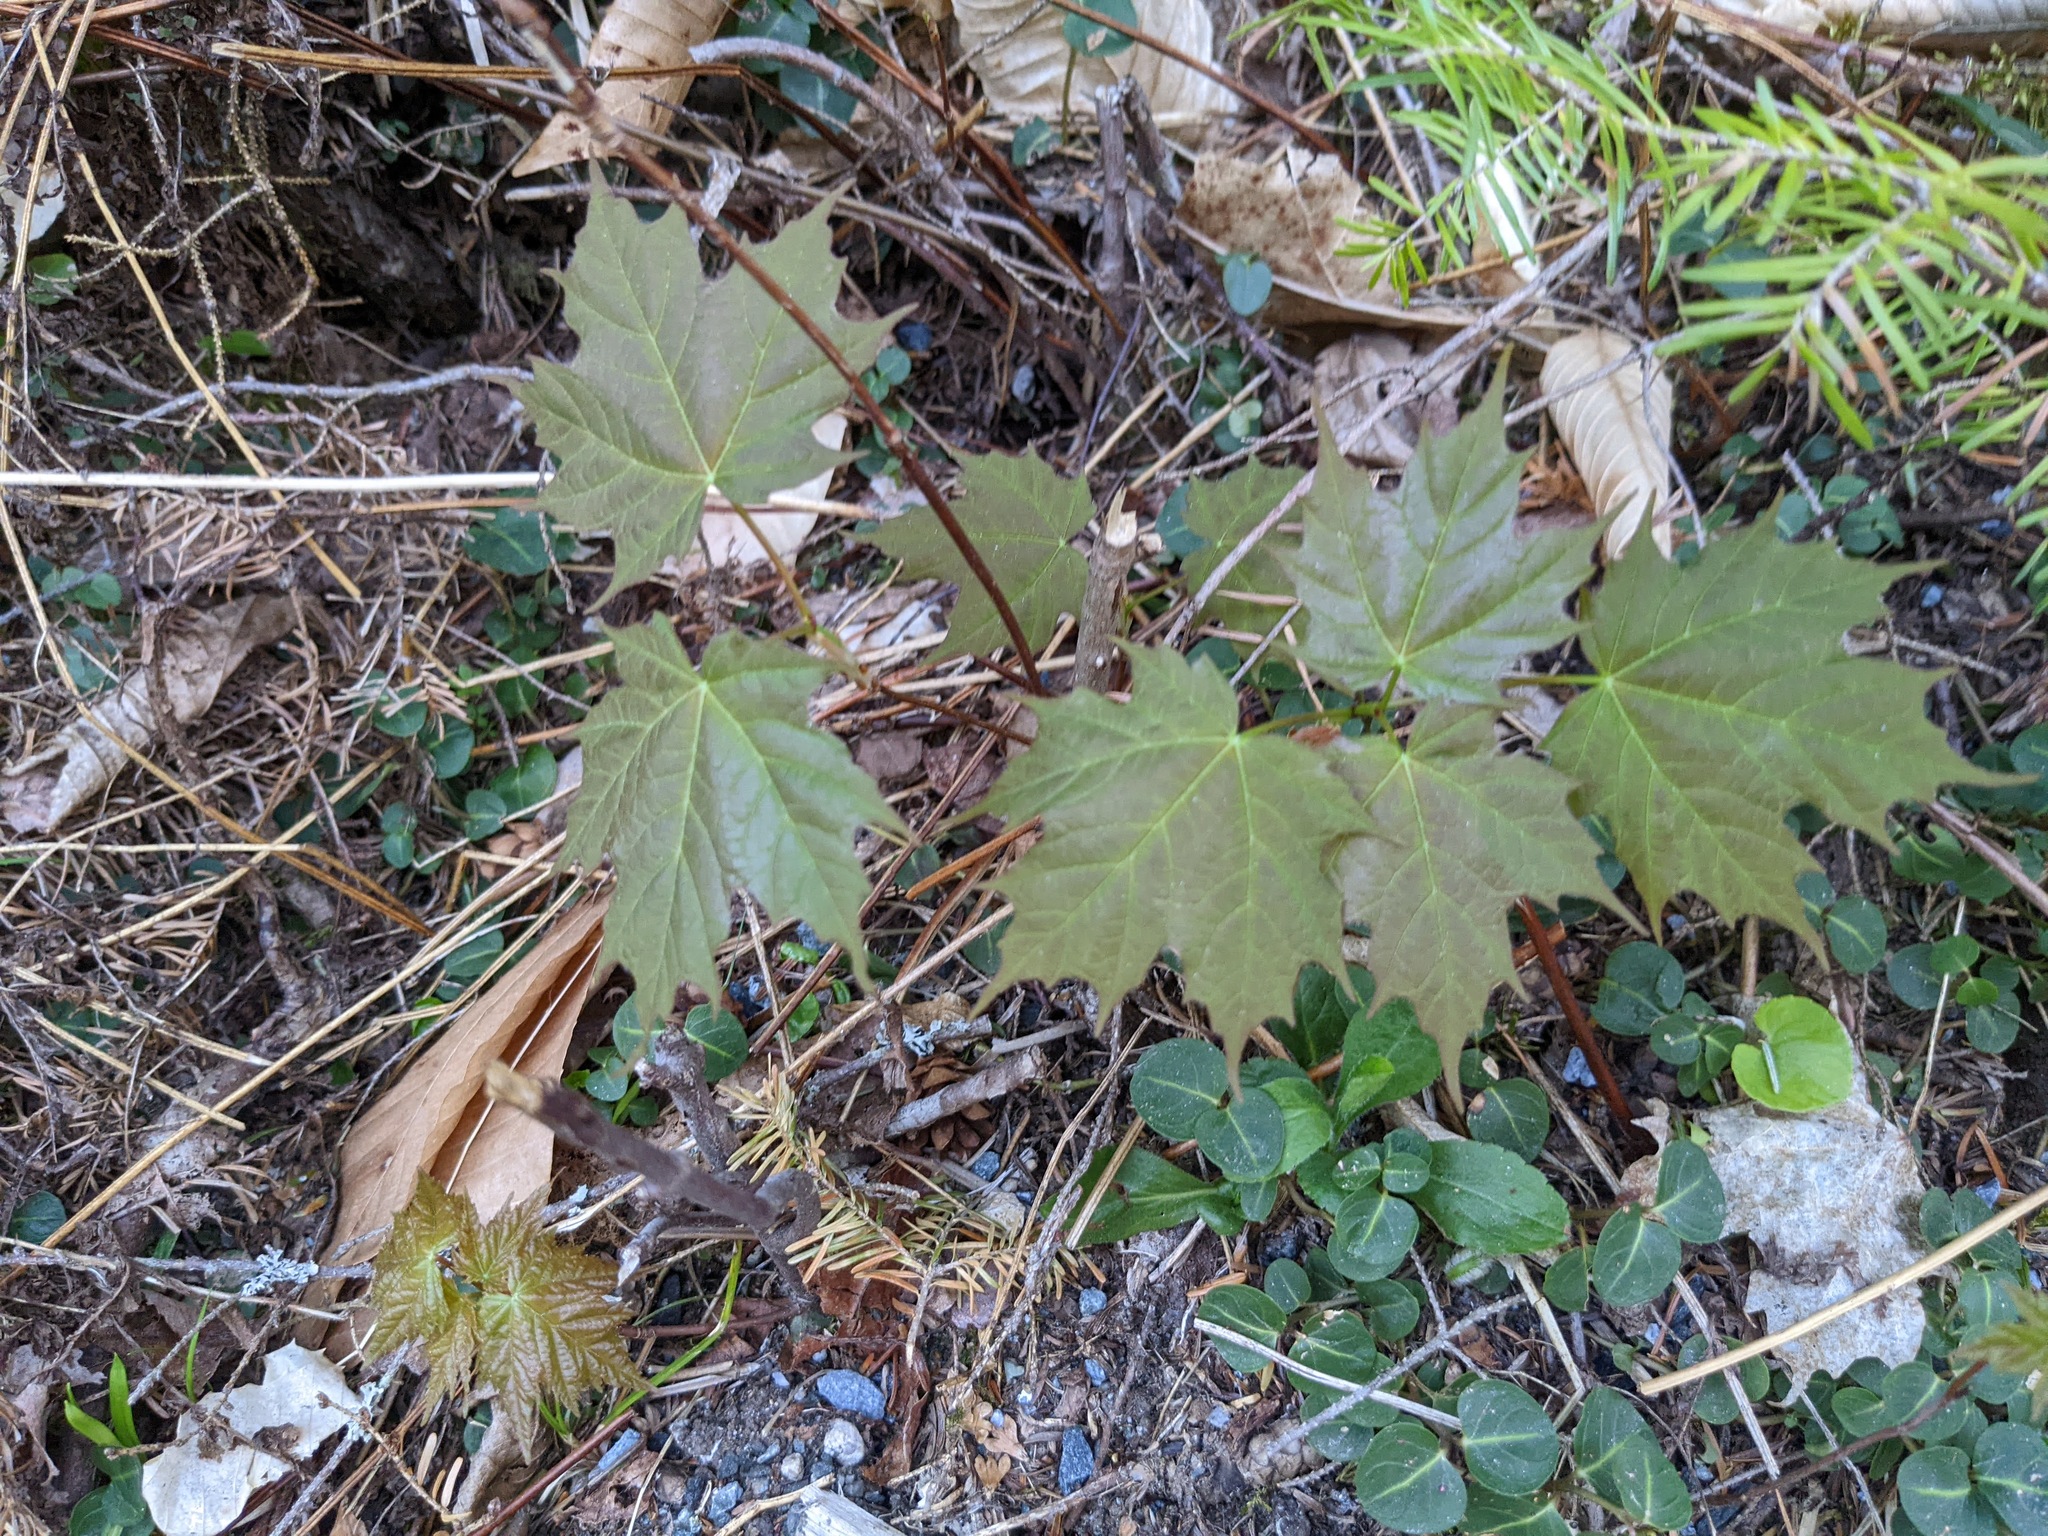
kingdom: Plantae
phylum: Tracheophyta
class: Magnoliopsida
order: Gentianales
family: Rubiaceae
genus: Mitchella
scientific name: Mitchella repens
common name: Partridge-berry
